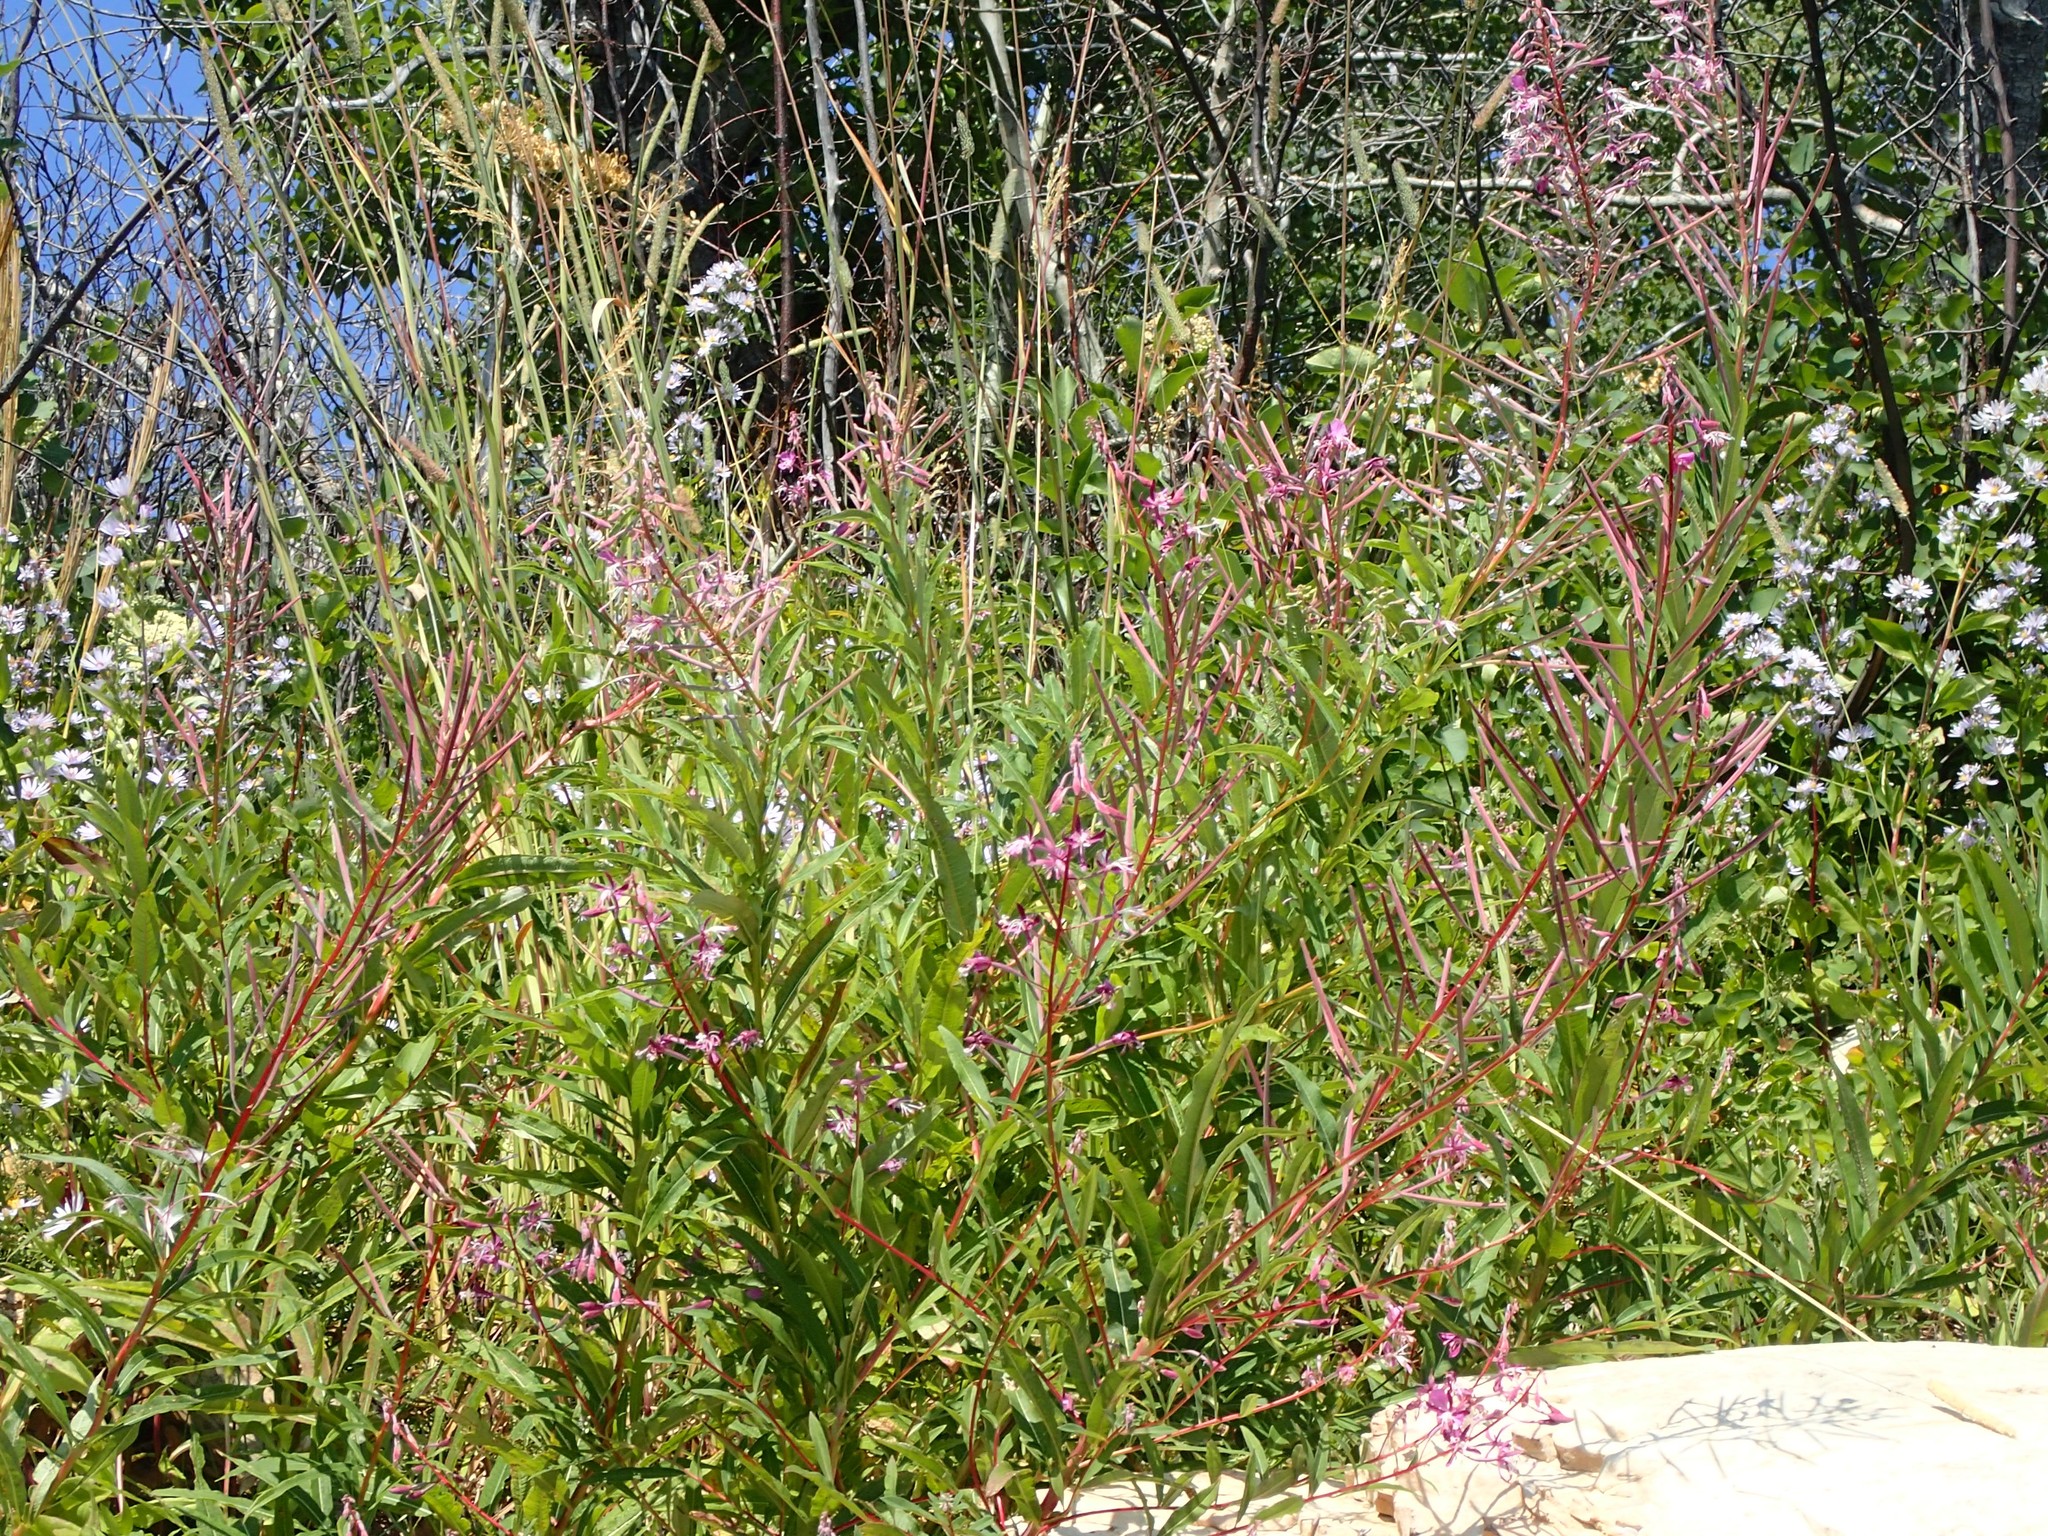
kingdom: Plantae
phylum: Tracheophyta
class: Magnoliopsida
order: Myrtales
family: Onagraceae
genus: Chamaenerion
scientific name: Chamaenerion angustifolium
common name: Fireweed
